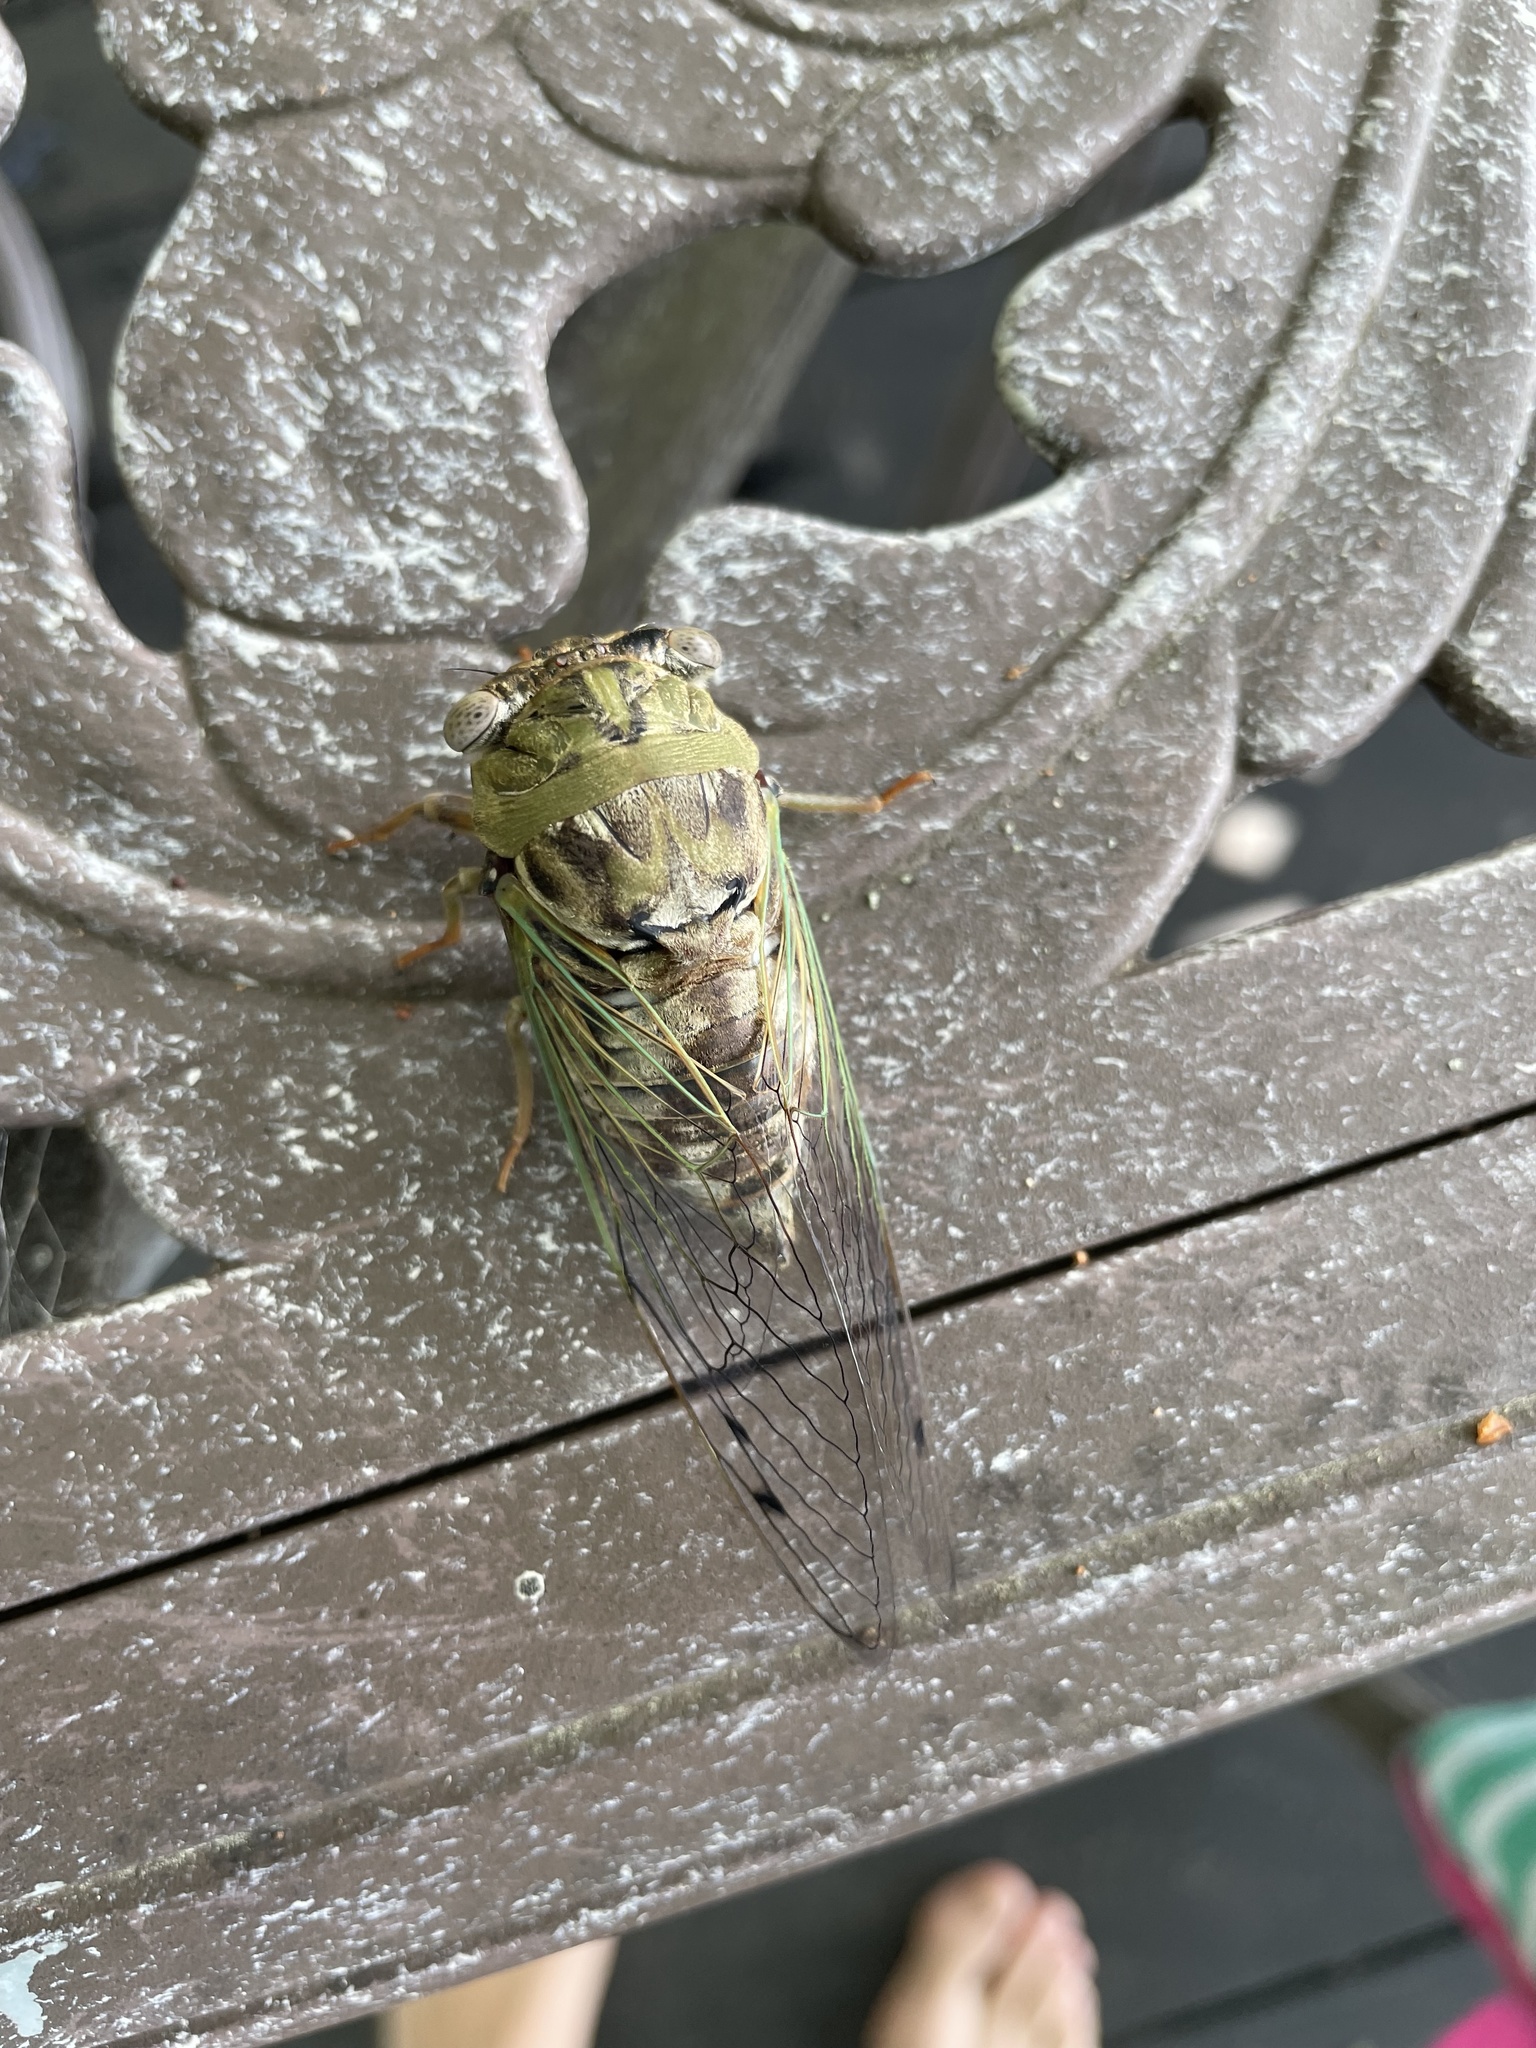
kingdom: Animalia
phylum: Arthropoda
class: Insecta
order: Hemiptera
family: Cicadidae
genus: Megatibicen
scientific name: Megatibicen resh
